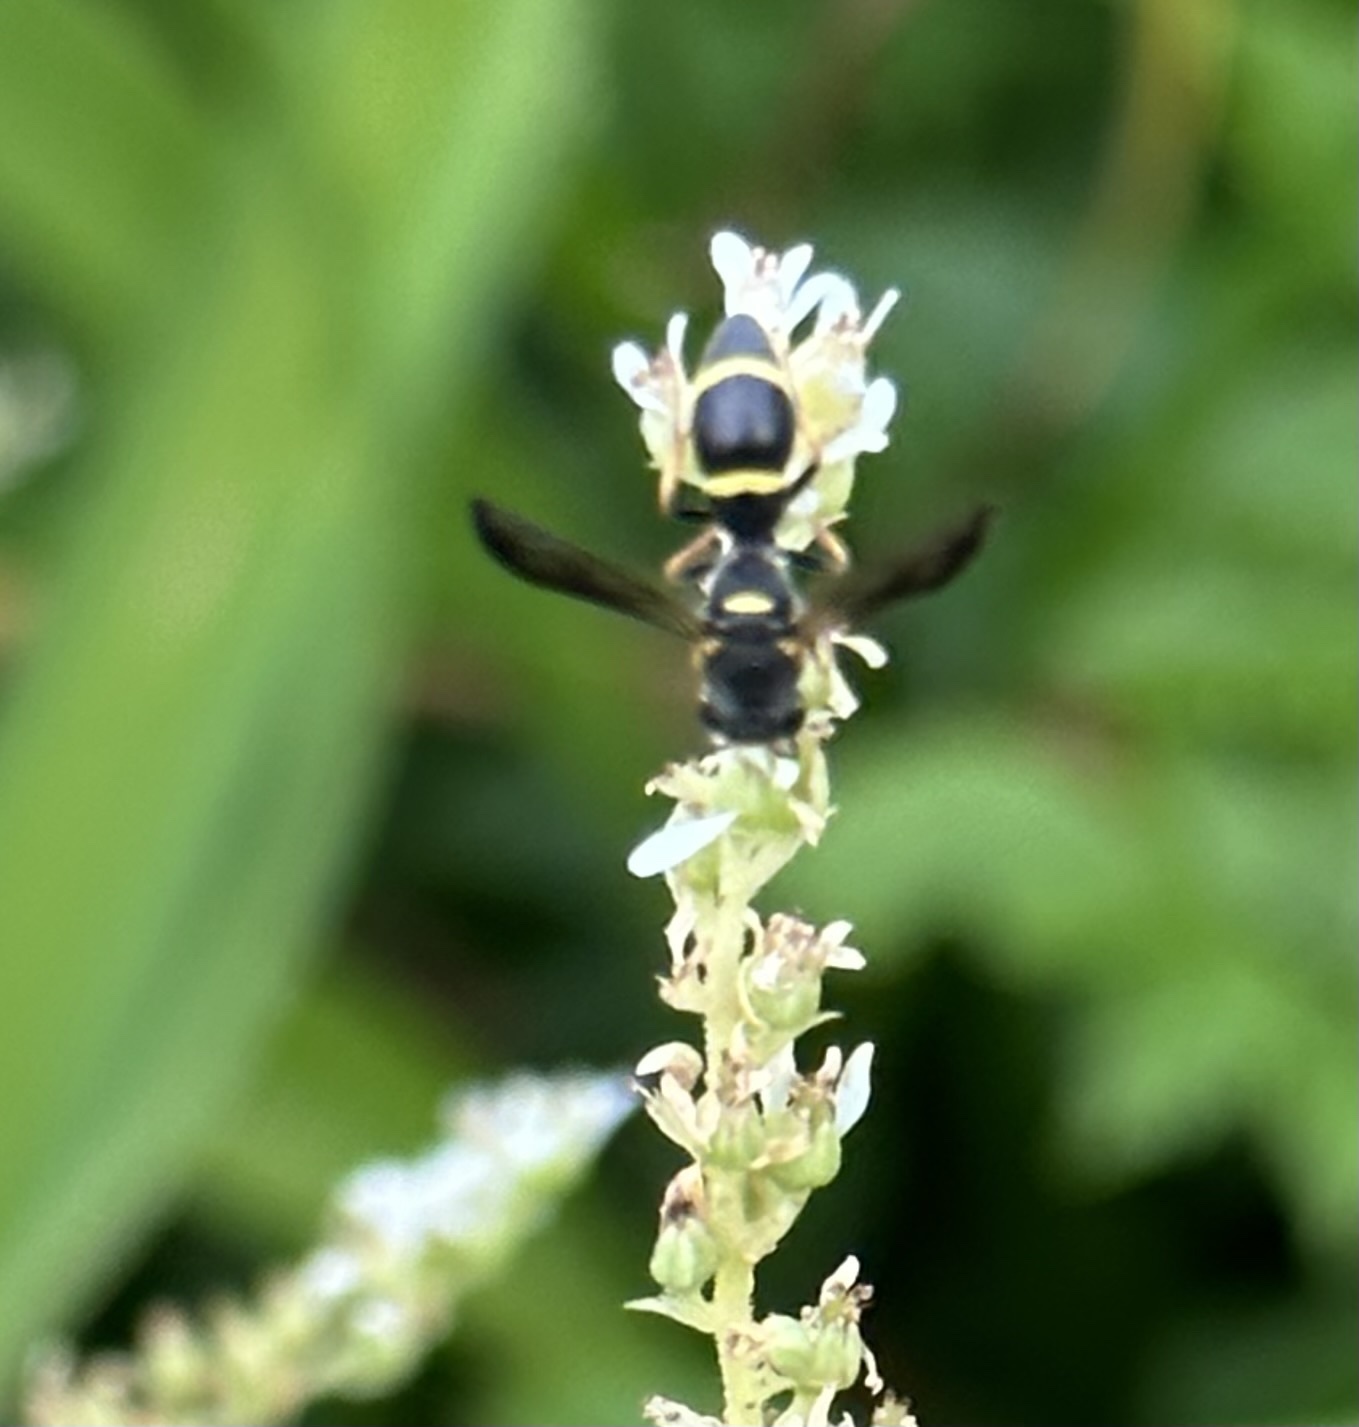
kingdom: Animalia
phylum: Arthropoda
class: Insecta
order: Hymenoptera
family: Eumenidae
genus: Parancistrocerus
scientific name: Parancistrocerus perennis
